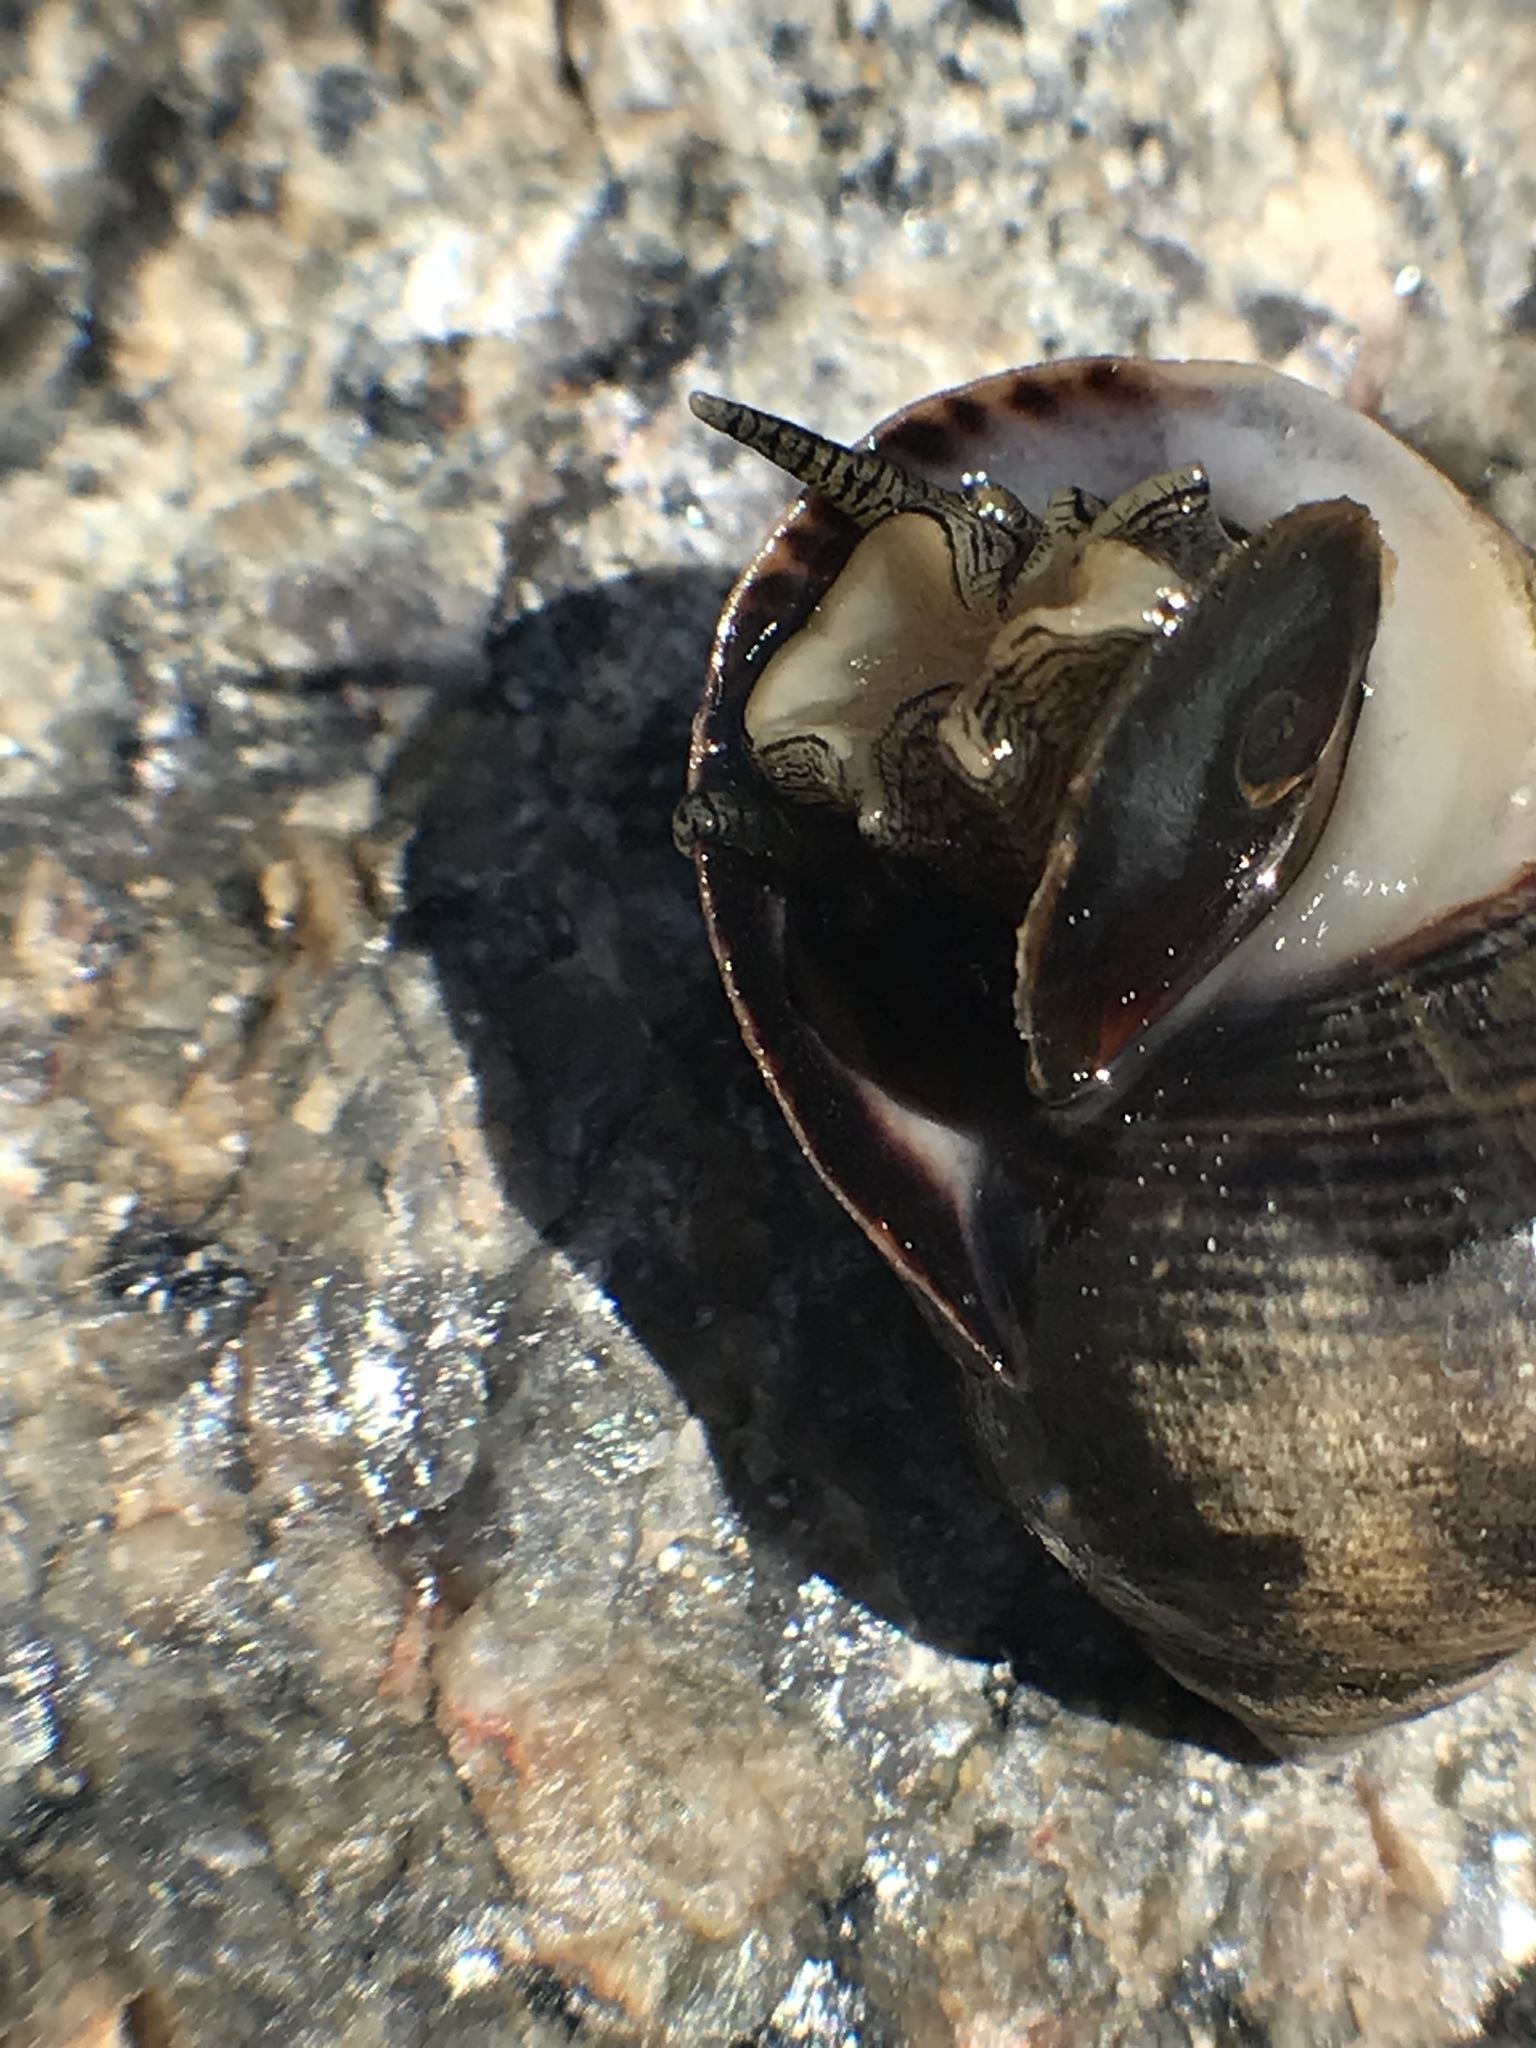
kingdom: Animalia
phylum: Mollusca
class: Gastropoda
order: Littorinimorpha
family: Littorinidae
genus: Littorina
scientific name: Littorina littorea
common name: Common periwinkle
